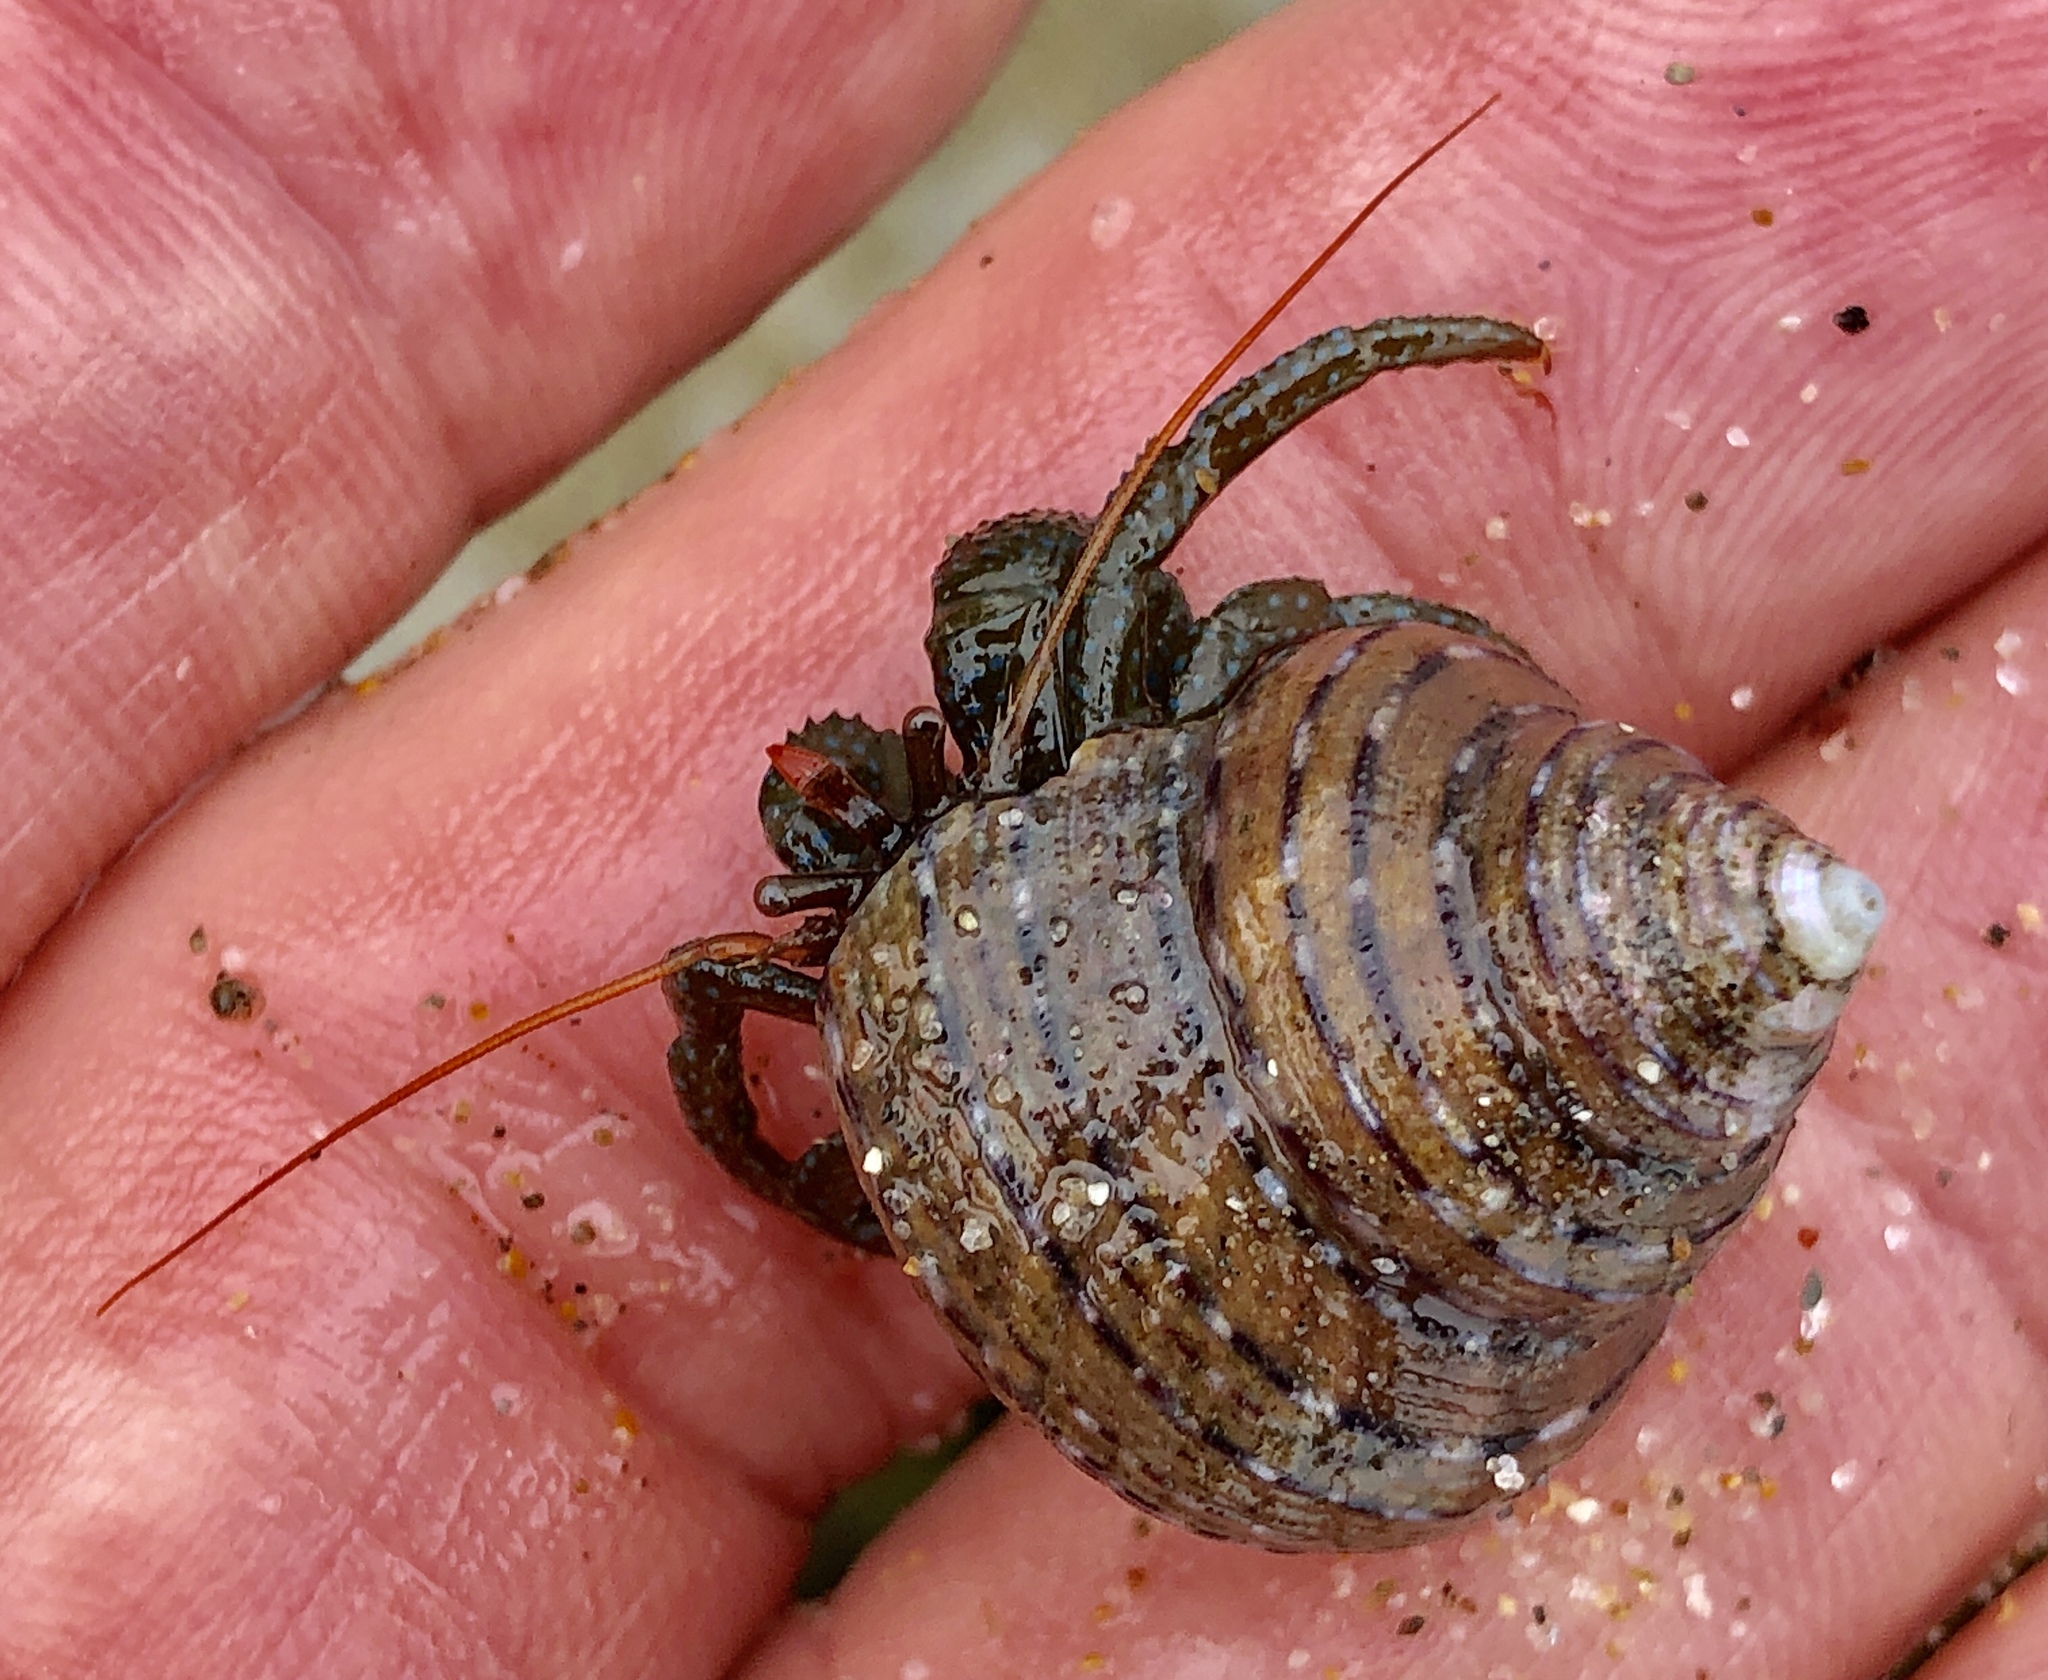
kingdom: Animalia
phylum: Arthropoda
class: Malacostraca
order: Decapoda
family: Paguridae
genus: Pagurus
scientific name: Pagurus granosimanus
